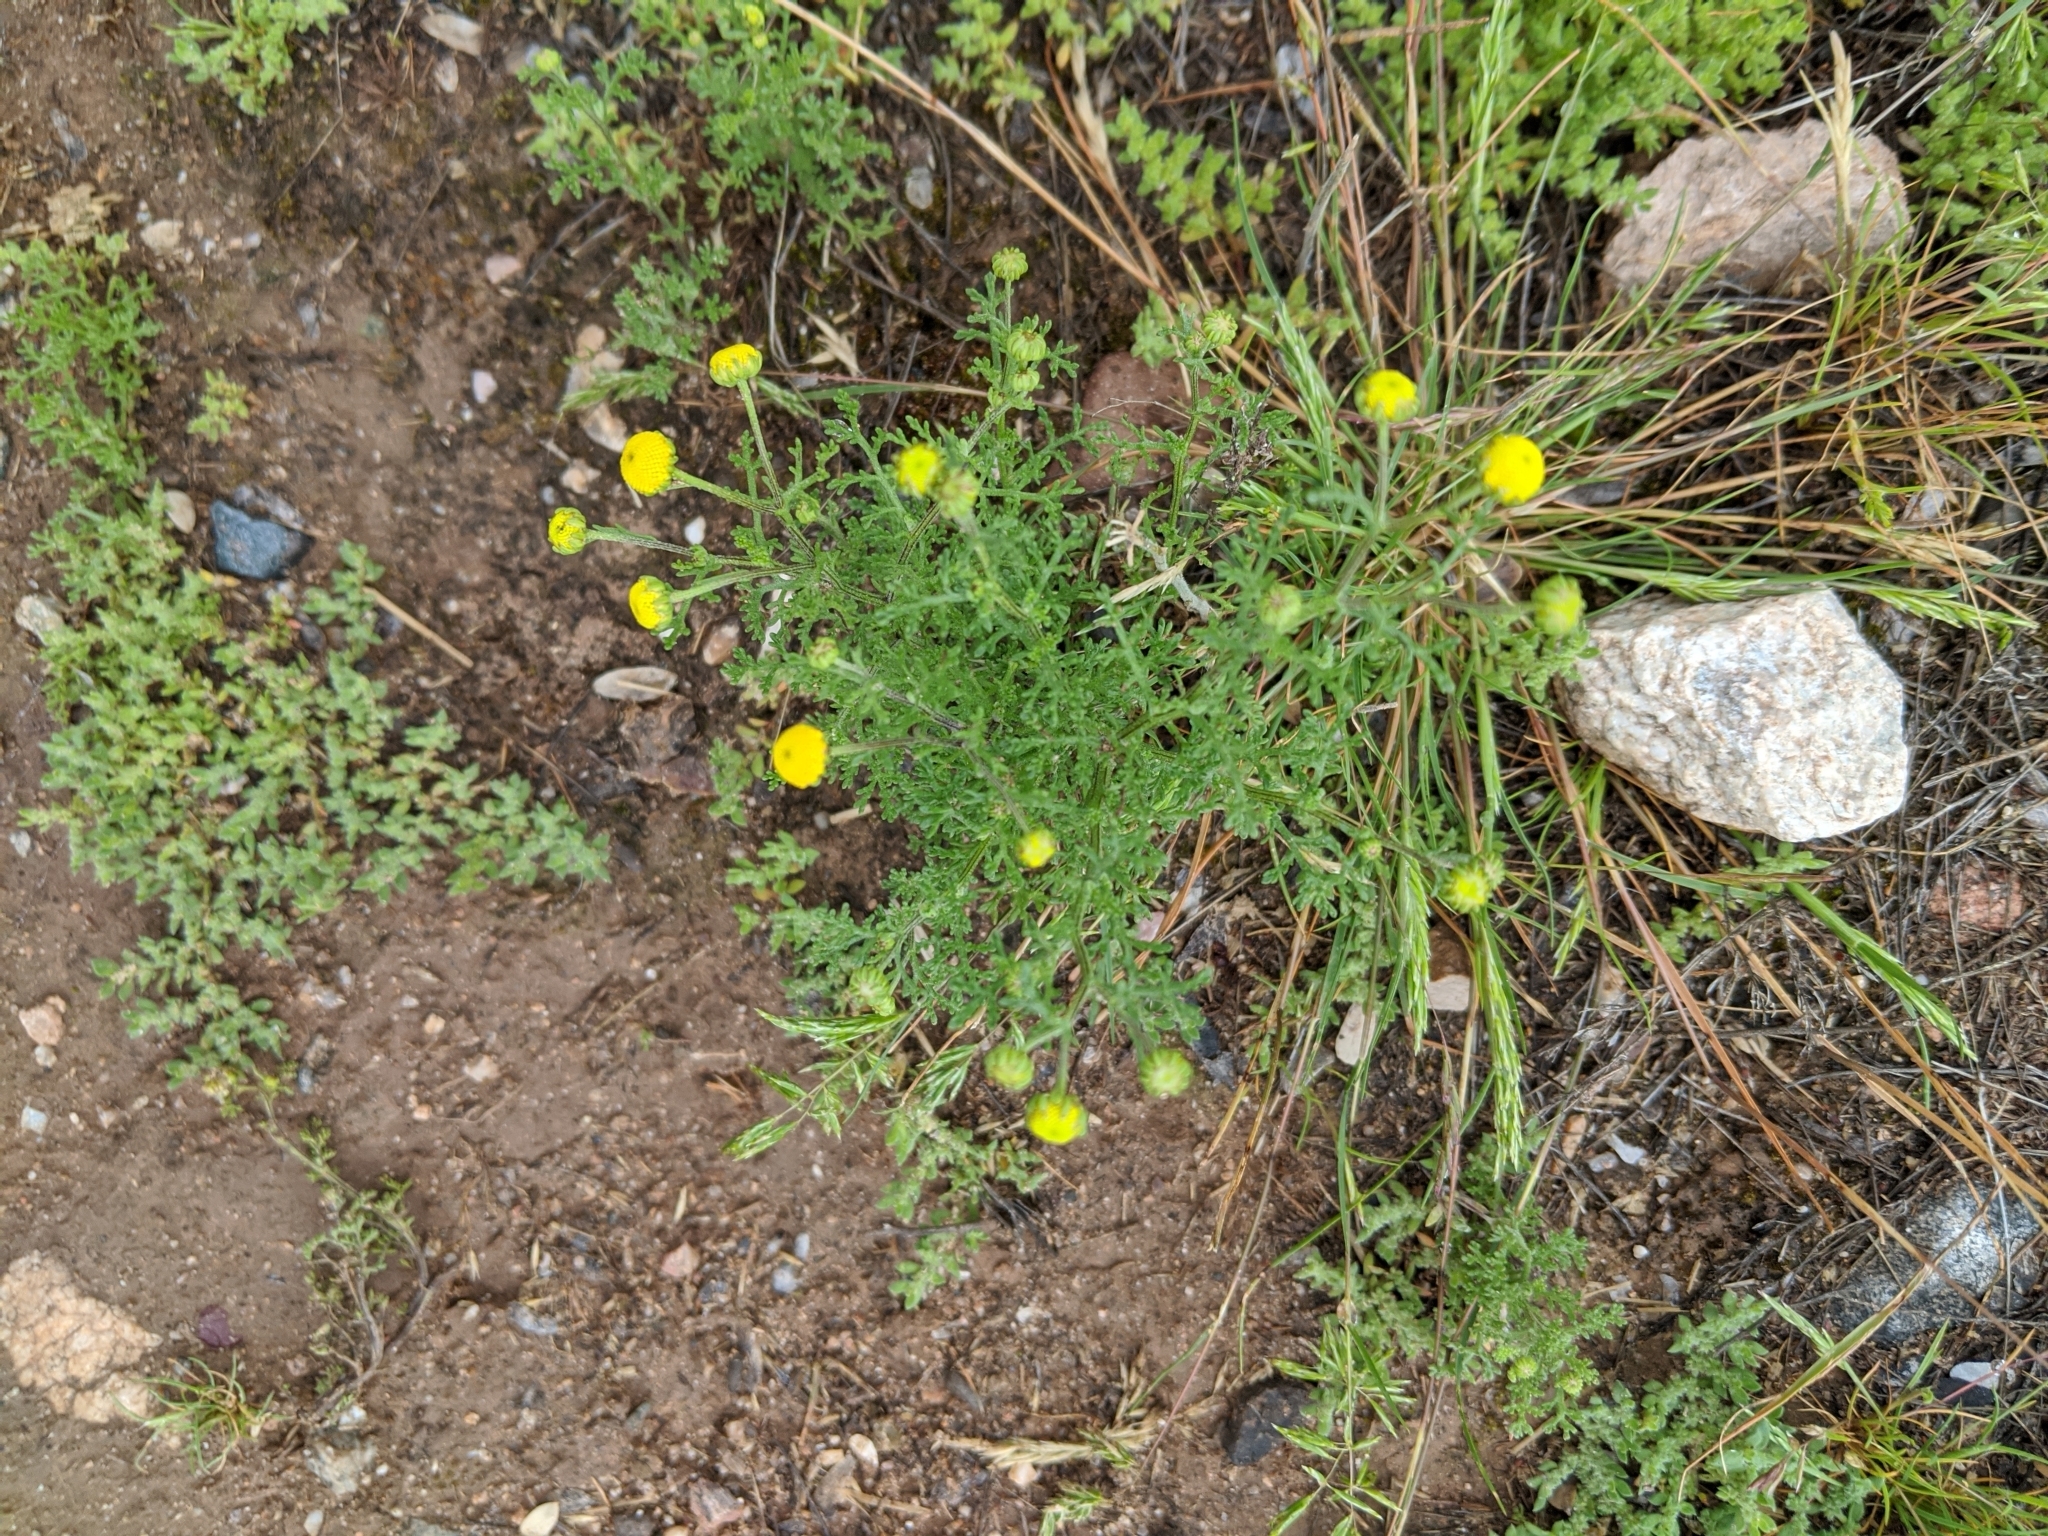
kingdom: Plantae
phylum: Tracheophyta
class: Magnoliopsida
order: Asterales
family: Asteraceae
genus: Oncosiphon
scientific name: Oncosiphon pilulifer
